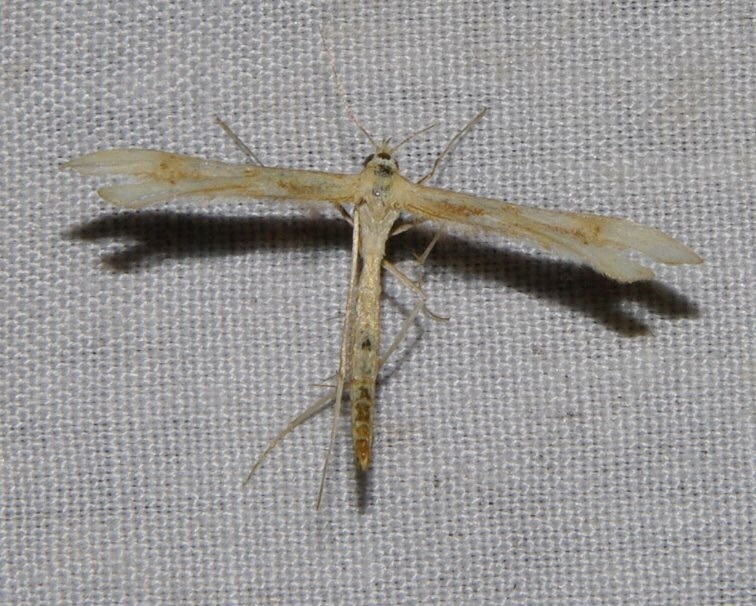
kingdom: Animalia
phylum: Arthropoda
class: Insecta
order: Lepidoptera
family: Pterophoridae
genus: Gillmeria
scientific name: Gillmeria pallidactyla
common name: Yarrow plume
